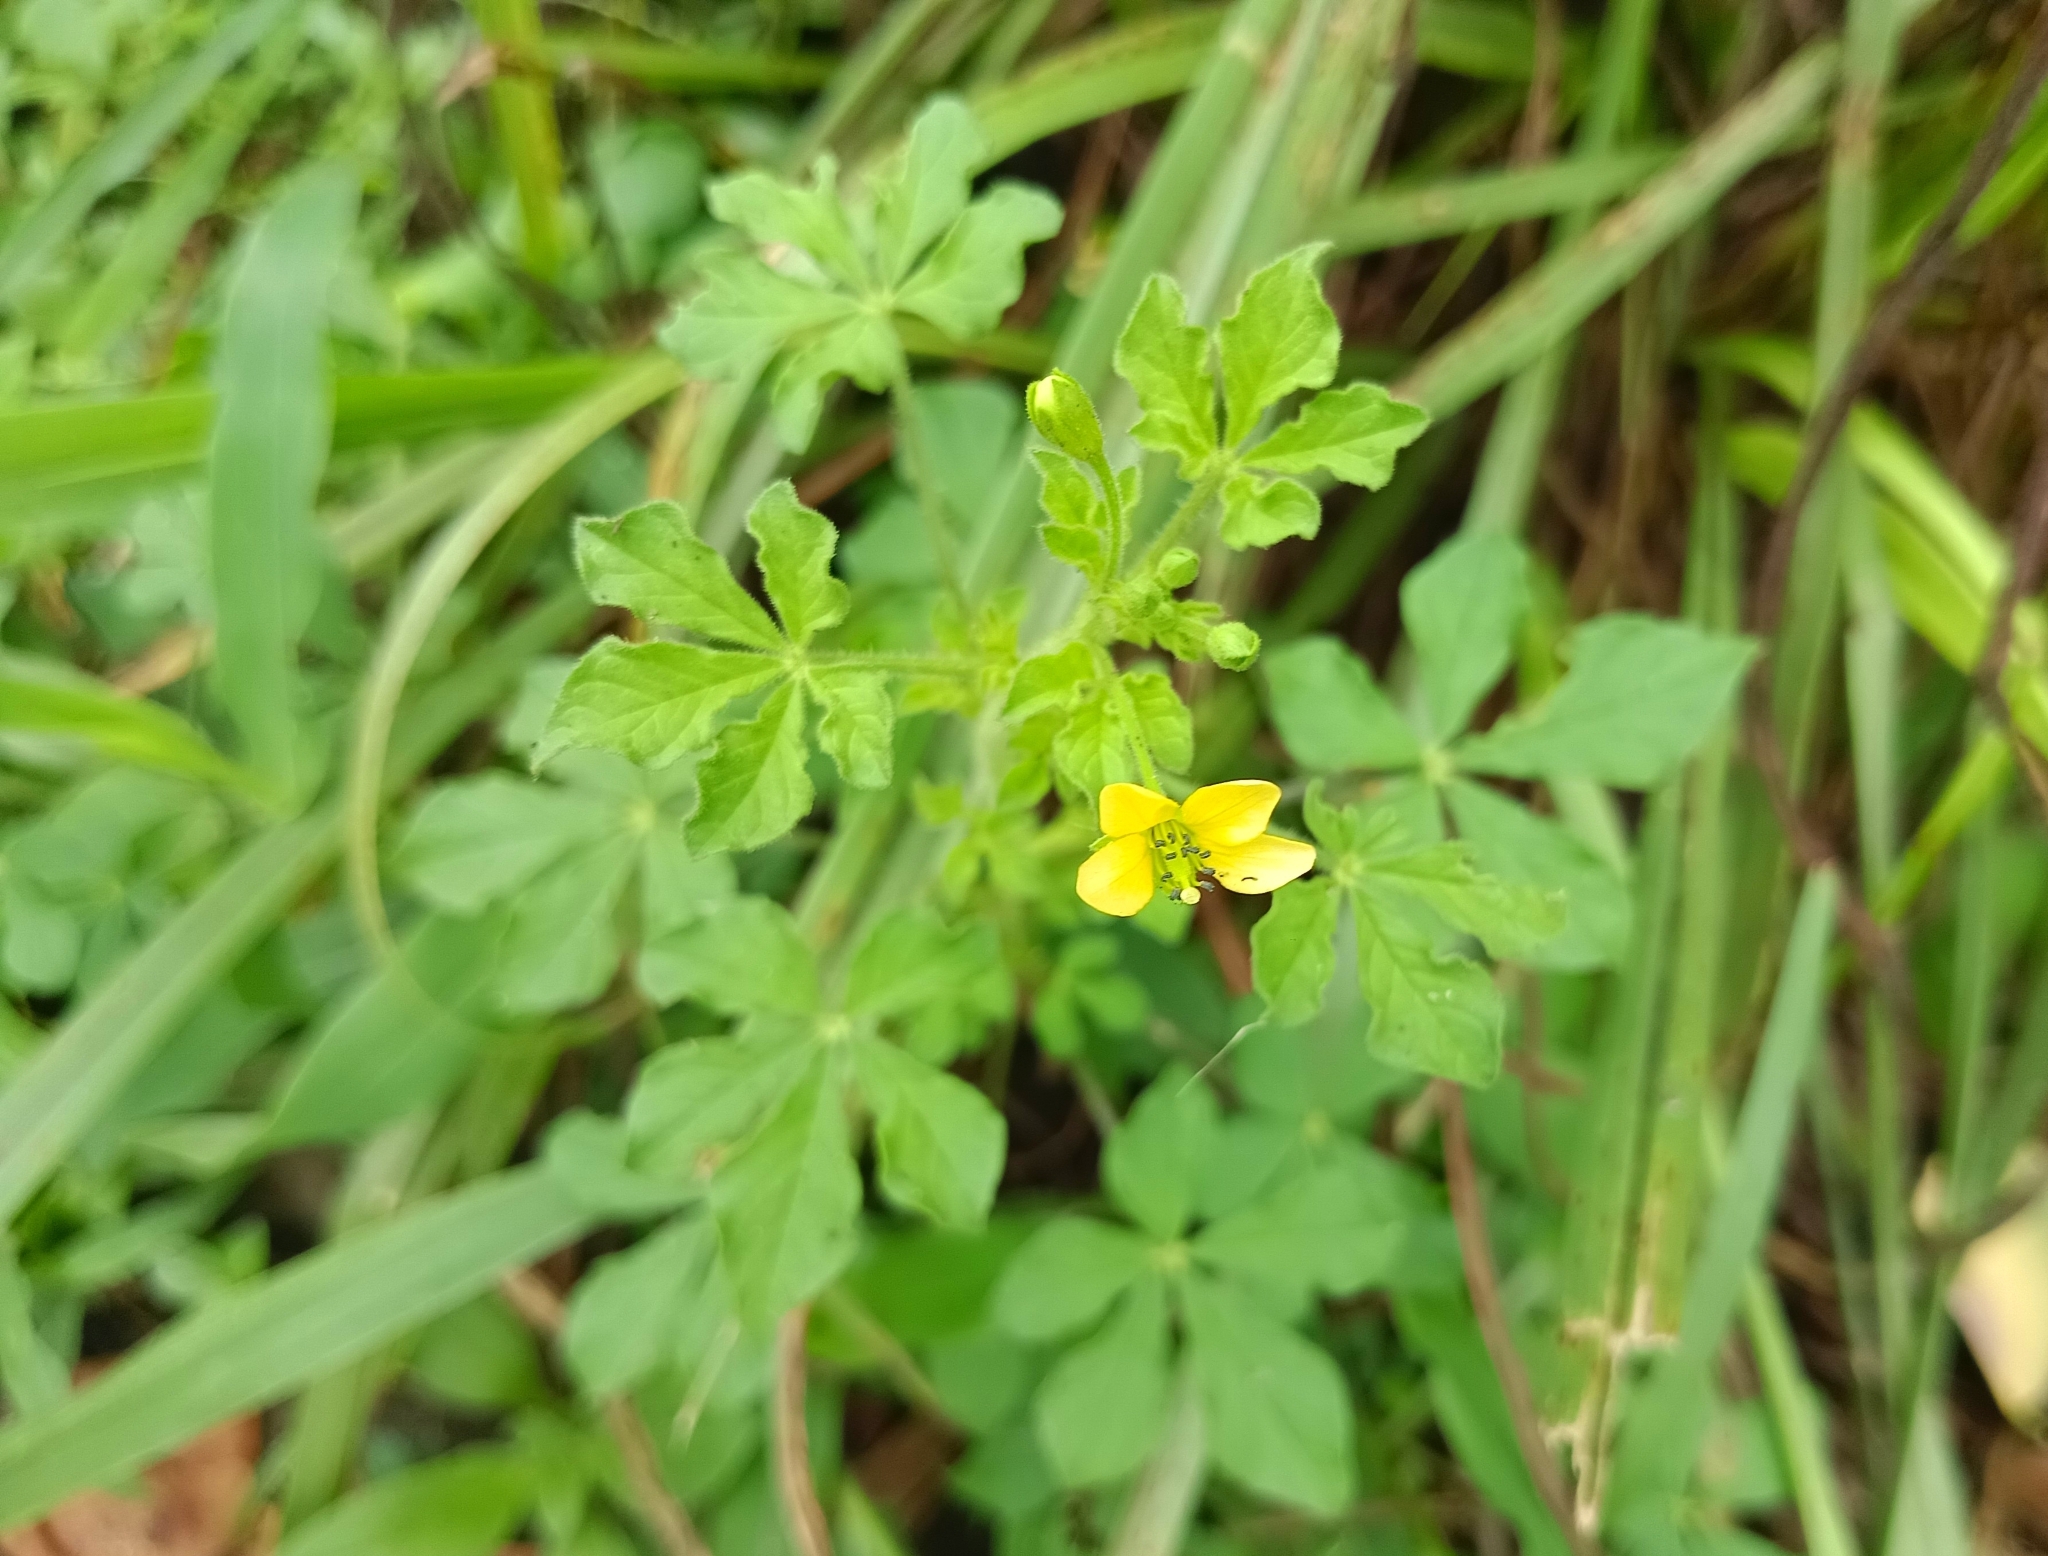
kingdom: Plantae
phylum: Tracheophyta
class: Magnoliopsida
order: Brassicales
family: Cleomaceae
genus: Arivela
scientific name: Arivela viscosa
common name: Asian spiderflower
